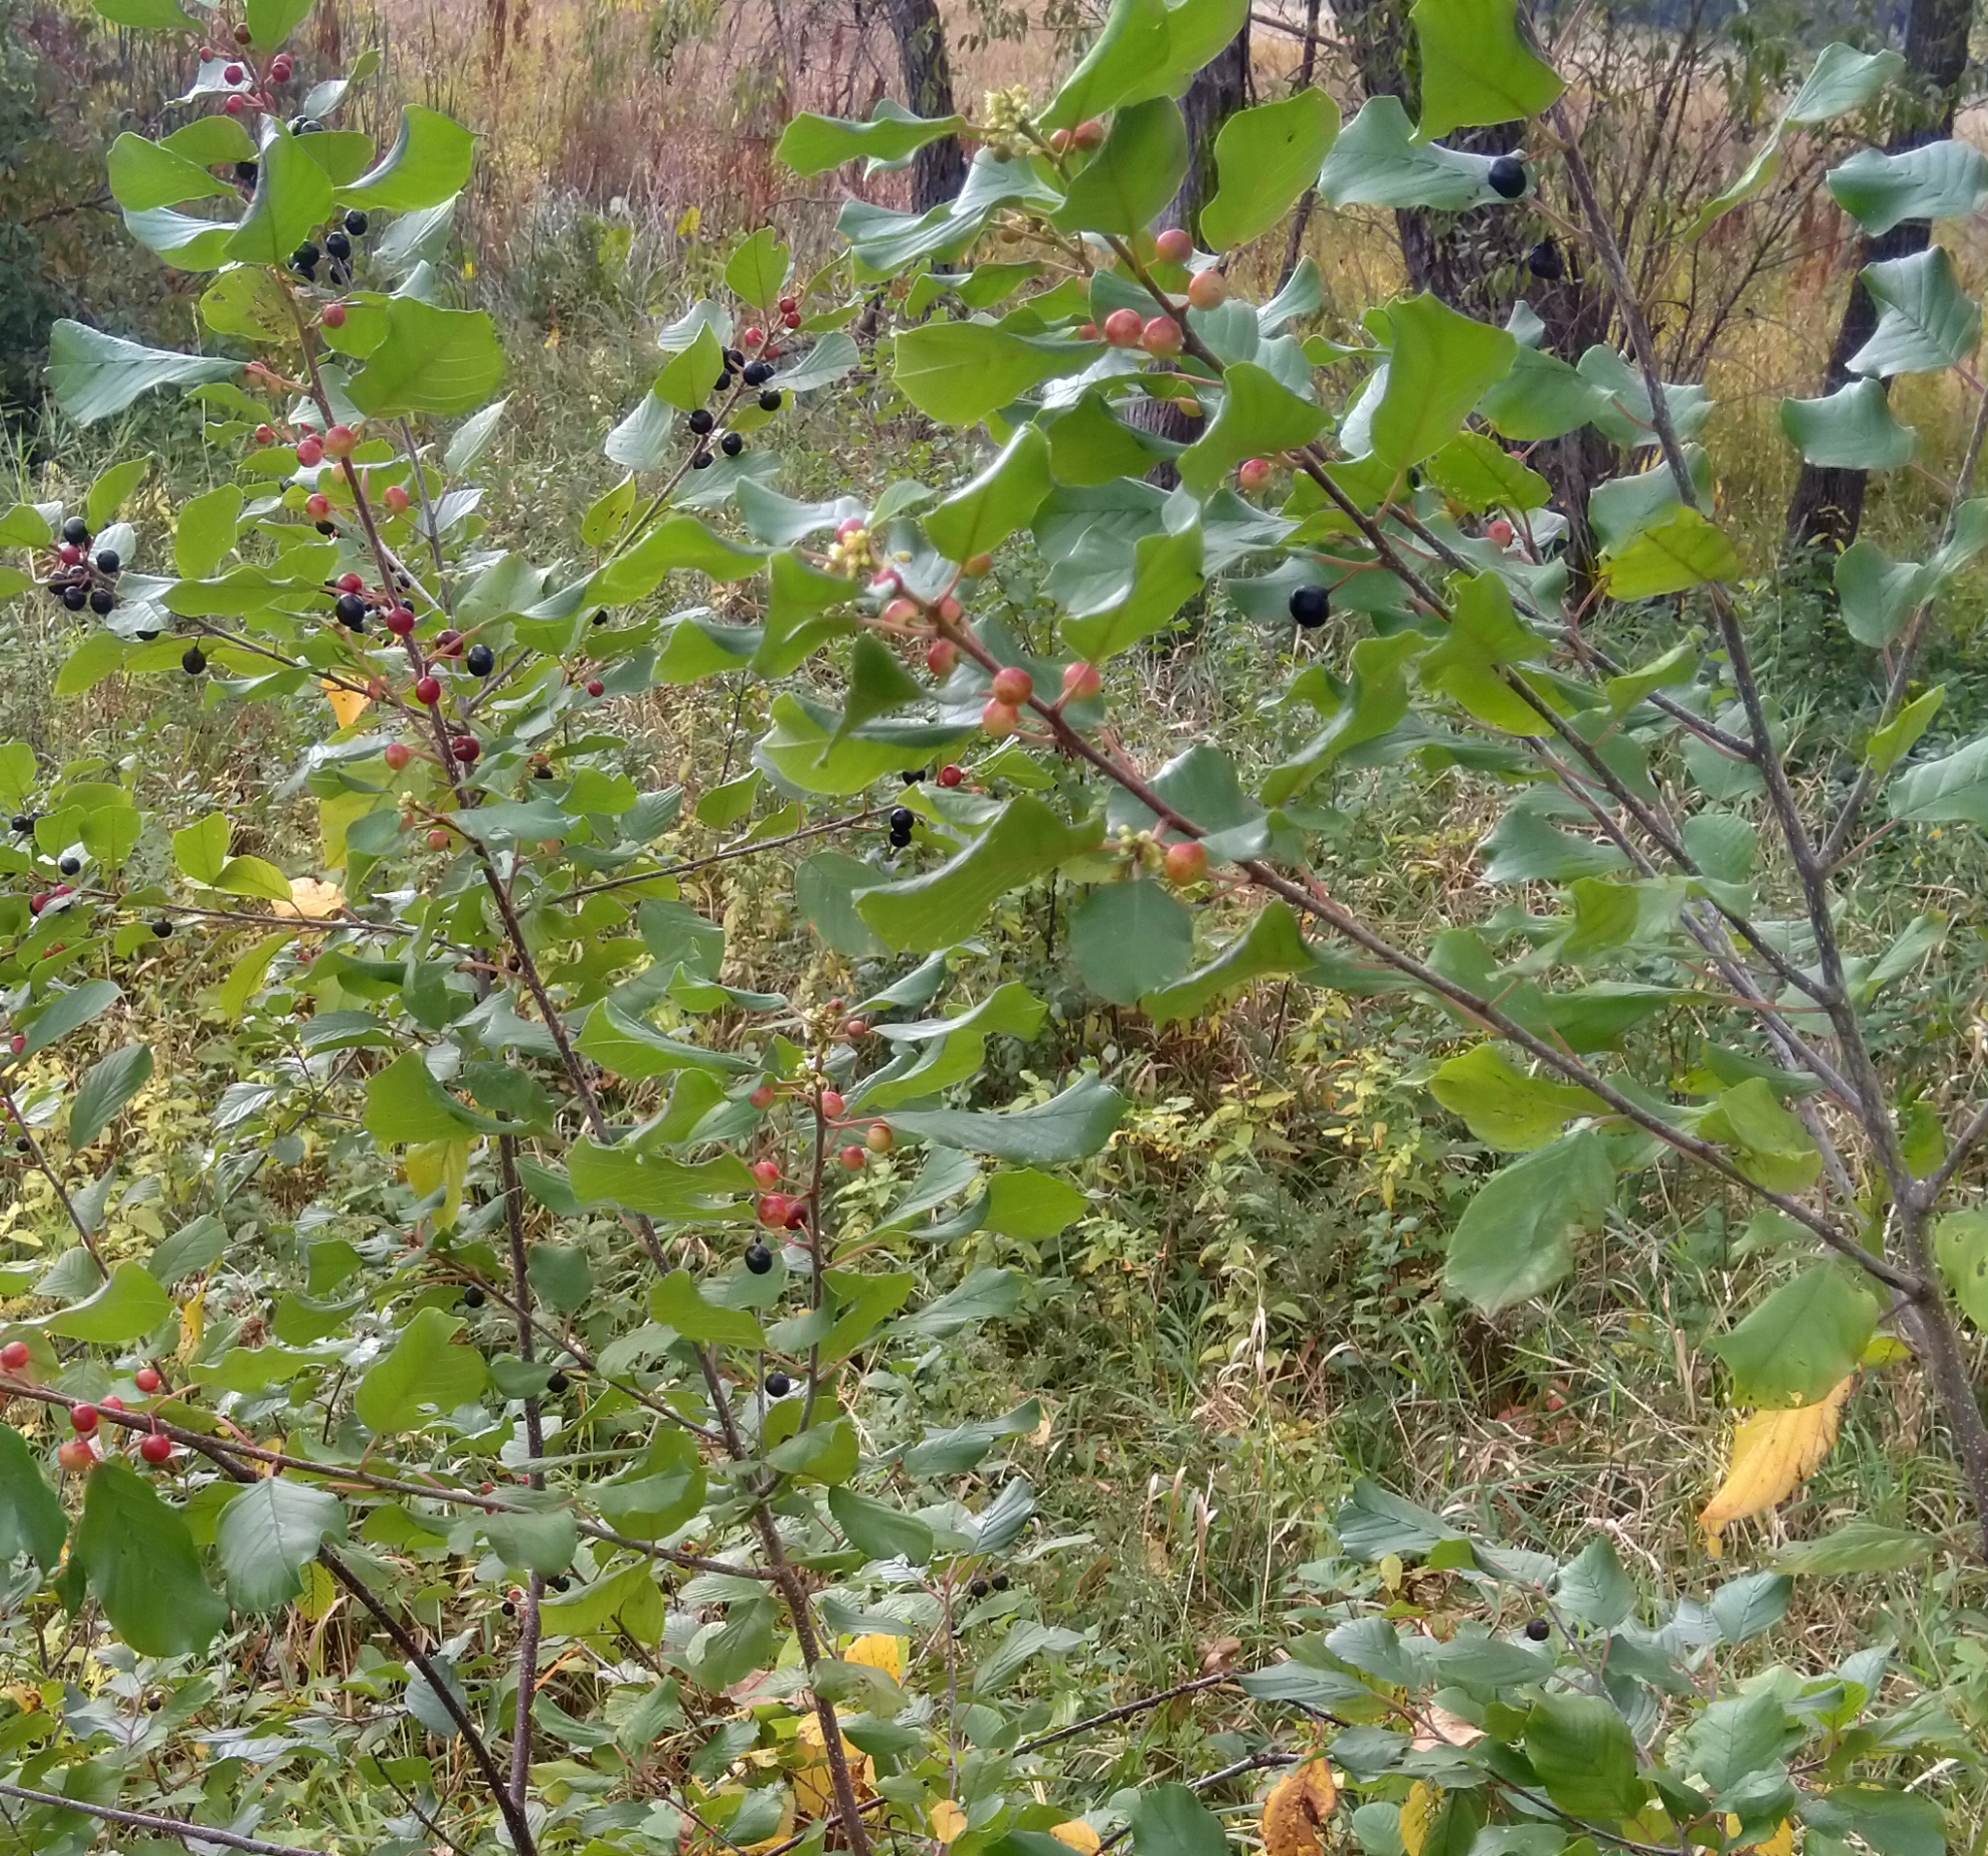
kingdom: Plantae
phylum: Tracheophyta
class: Magnoliopsida
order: Rosales
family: Rhamnaceae
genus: Frangula
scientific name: Frangula alnus
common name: Alder buckthorn
